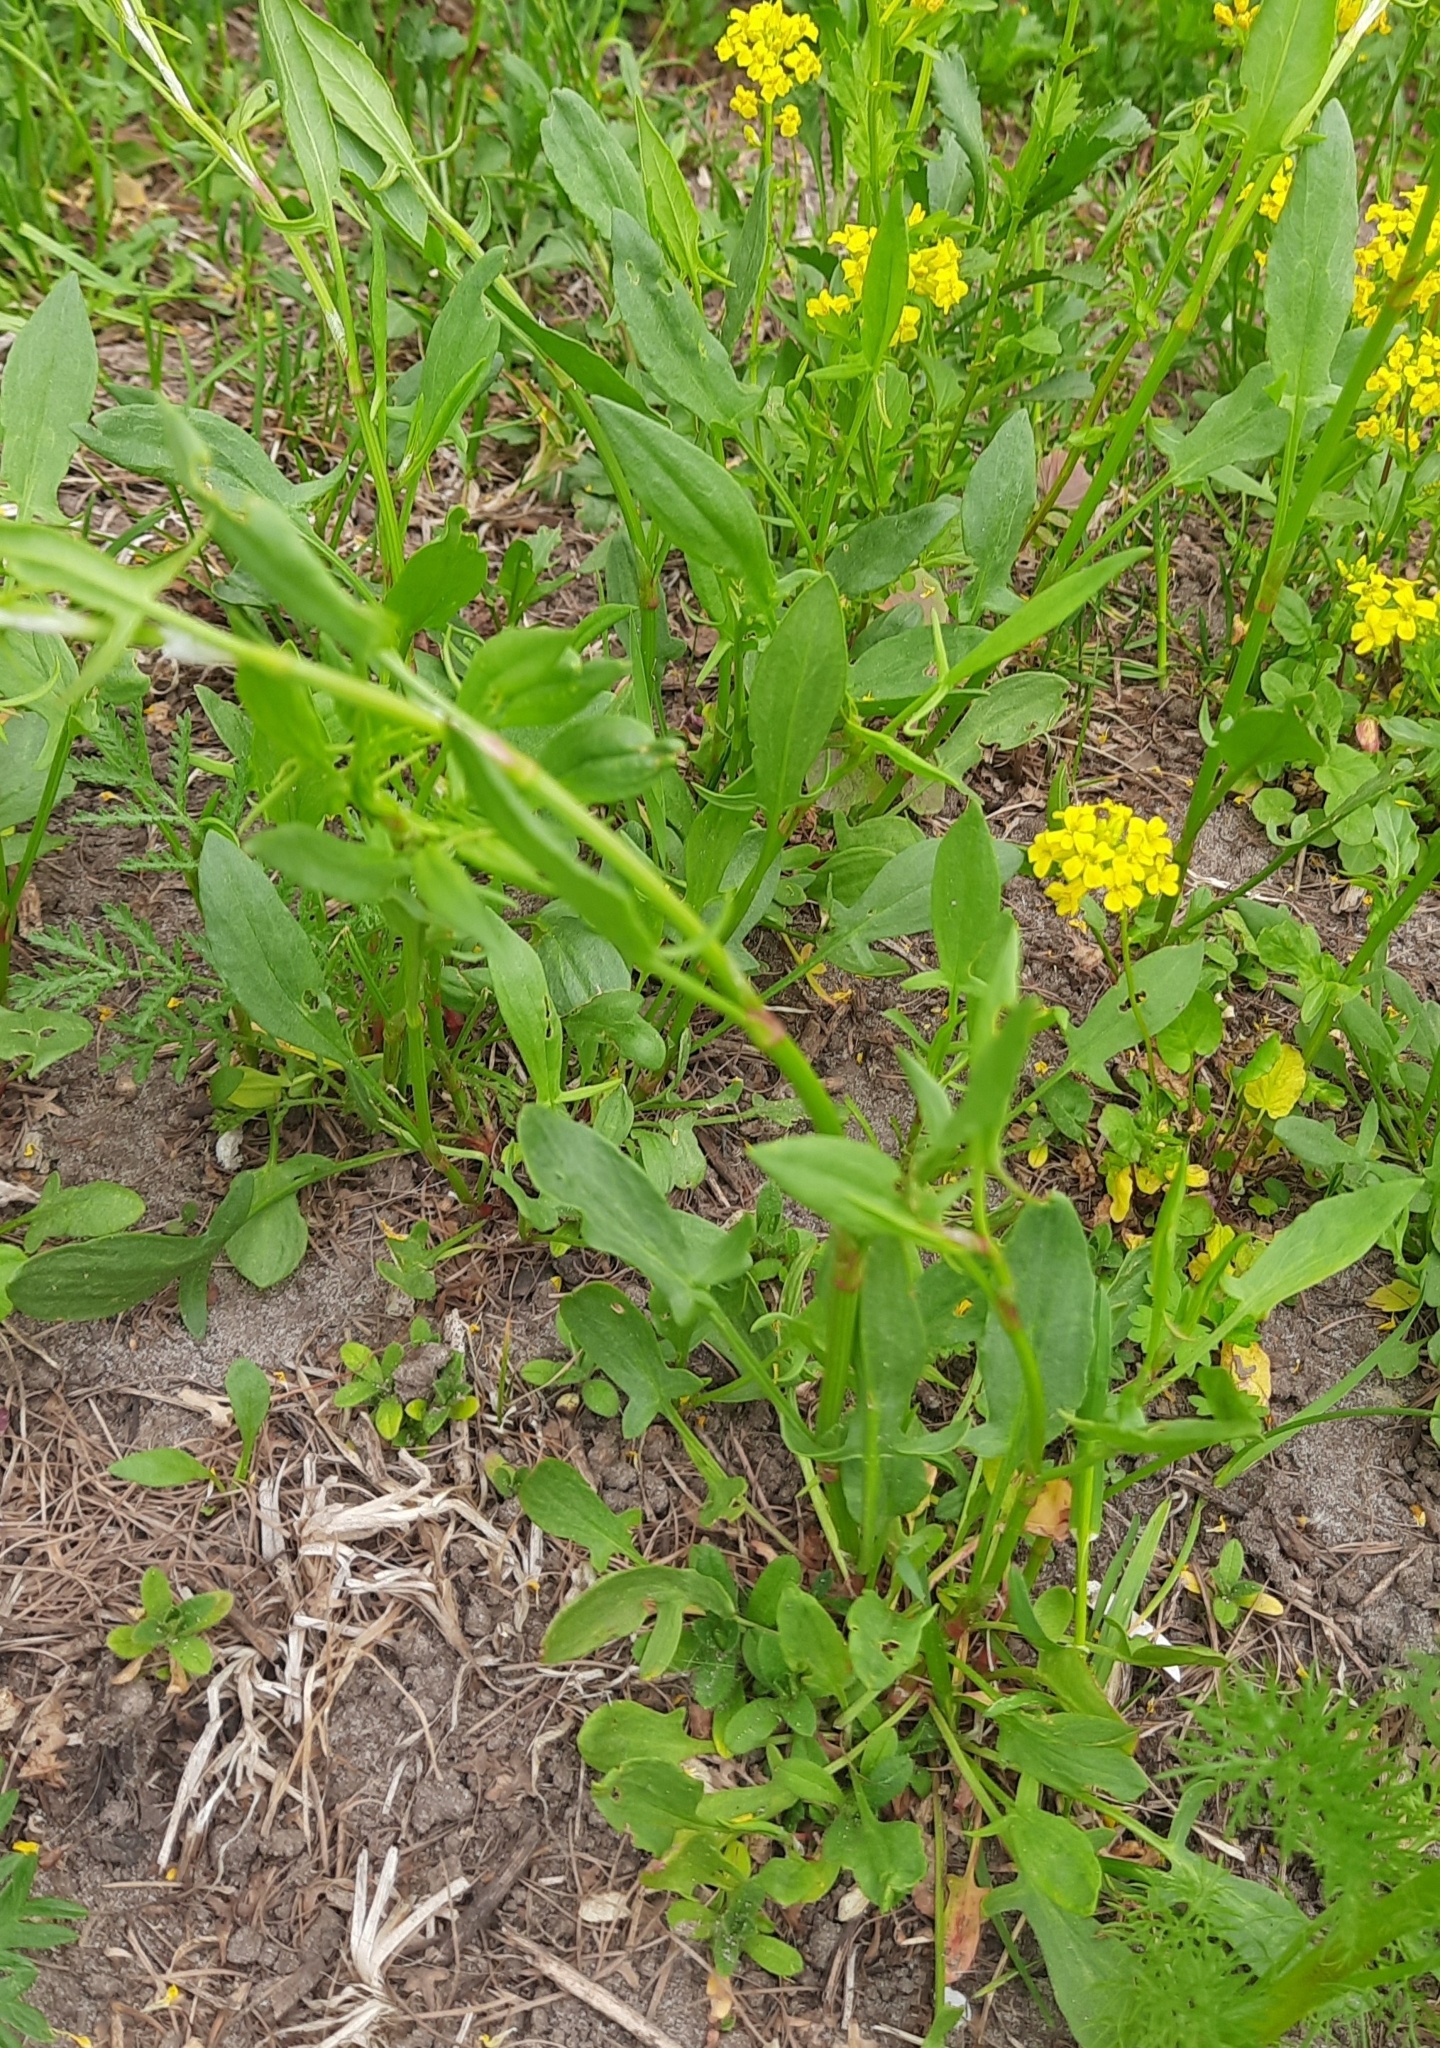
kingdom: Plantae
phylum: Tracheophyta
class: Magnoliopsida
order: Caryophyllales
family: Polygonaceae
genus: Rumex
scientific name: Rumex acetosella
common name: Common sheep sorrel
